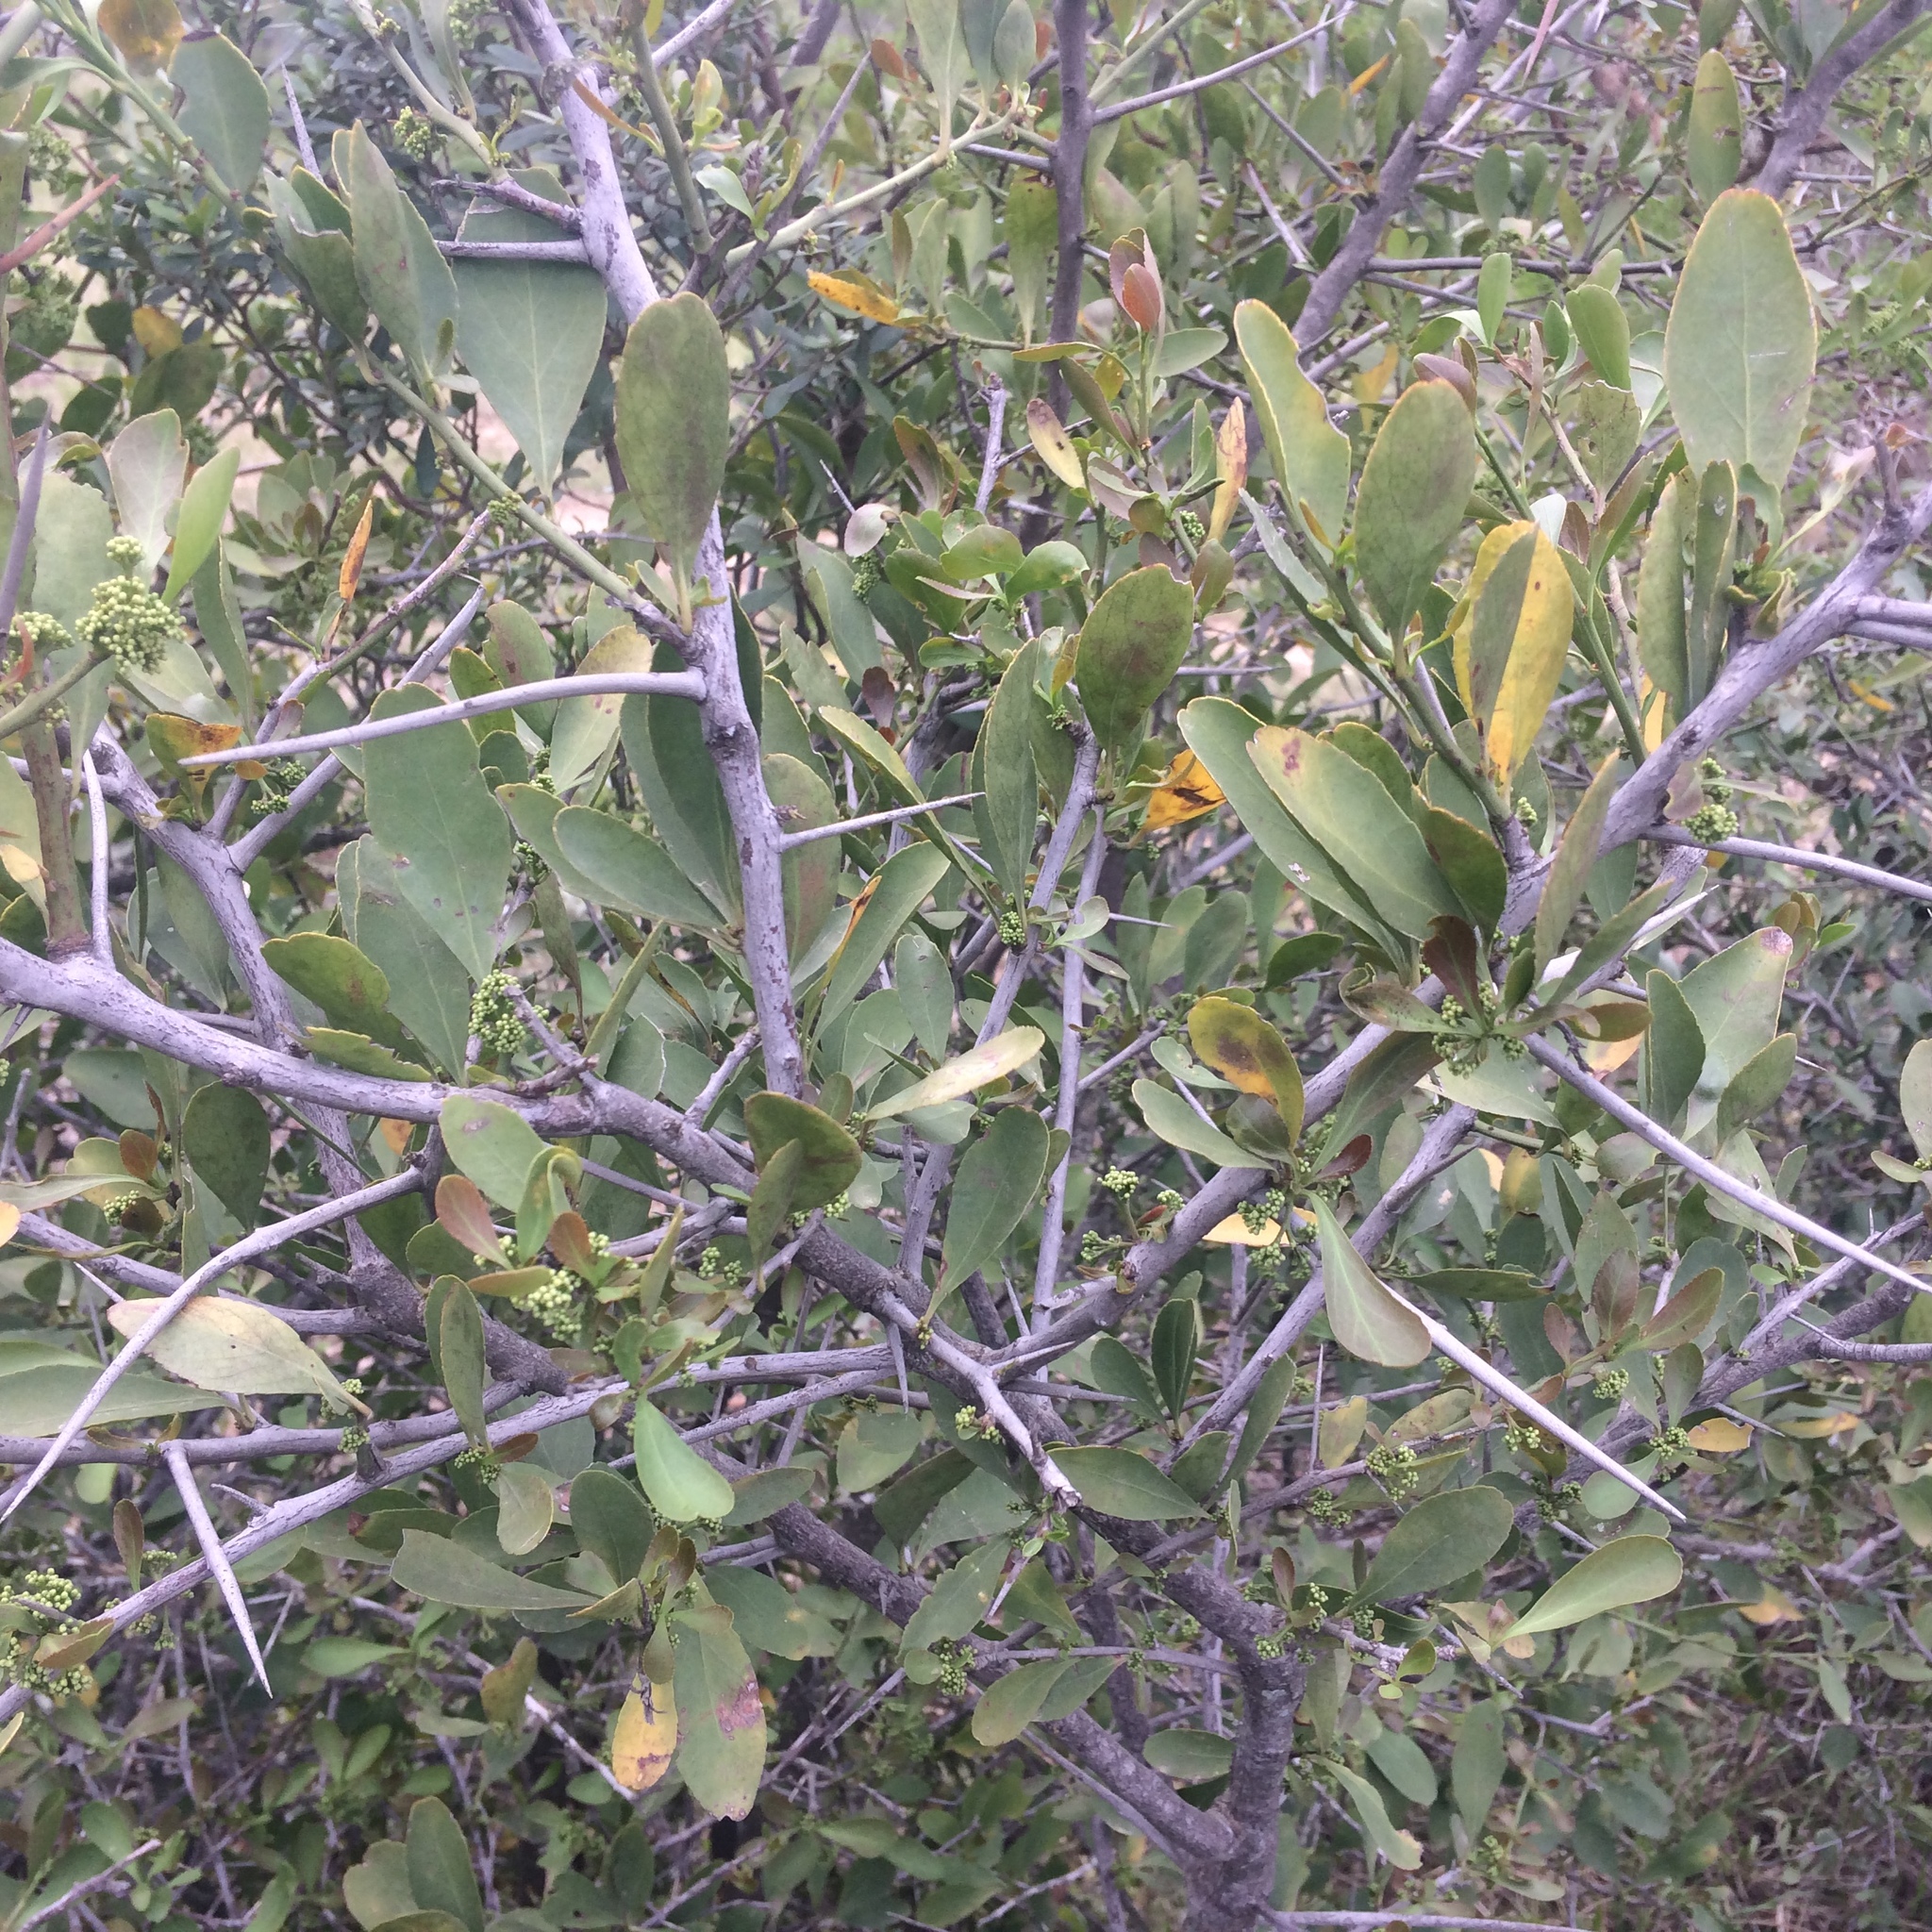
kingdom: Plantae
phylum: Tracheophyta
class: Magnoliopsida
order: Celastrales
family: Celastraceae
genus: Gymnosporia
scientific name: Gymnosporia buxifolia
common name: Common spike-thorn
